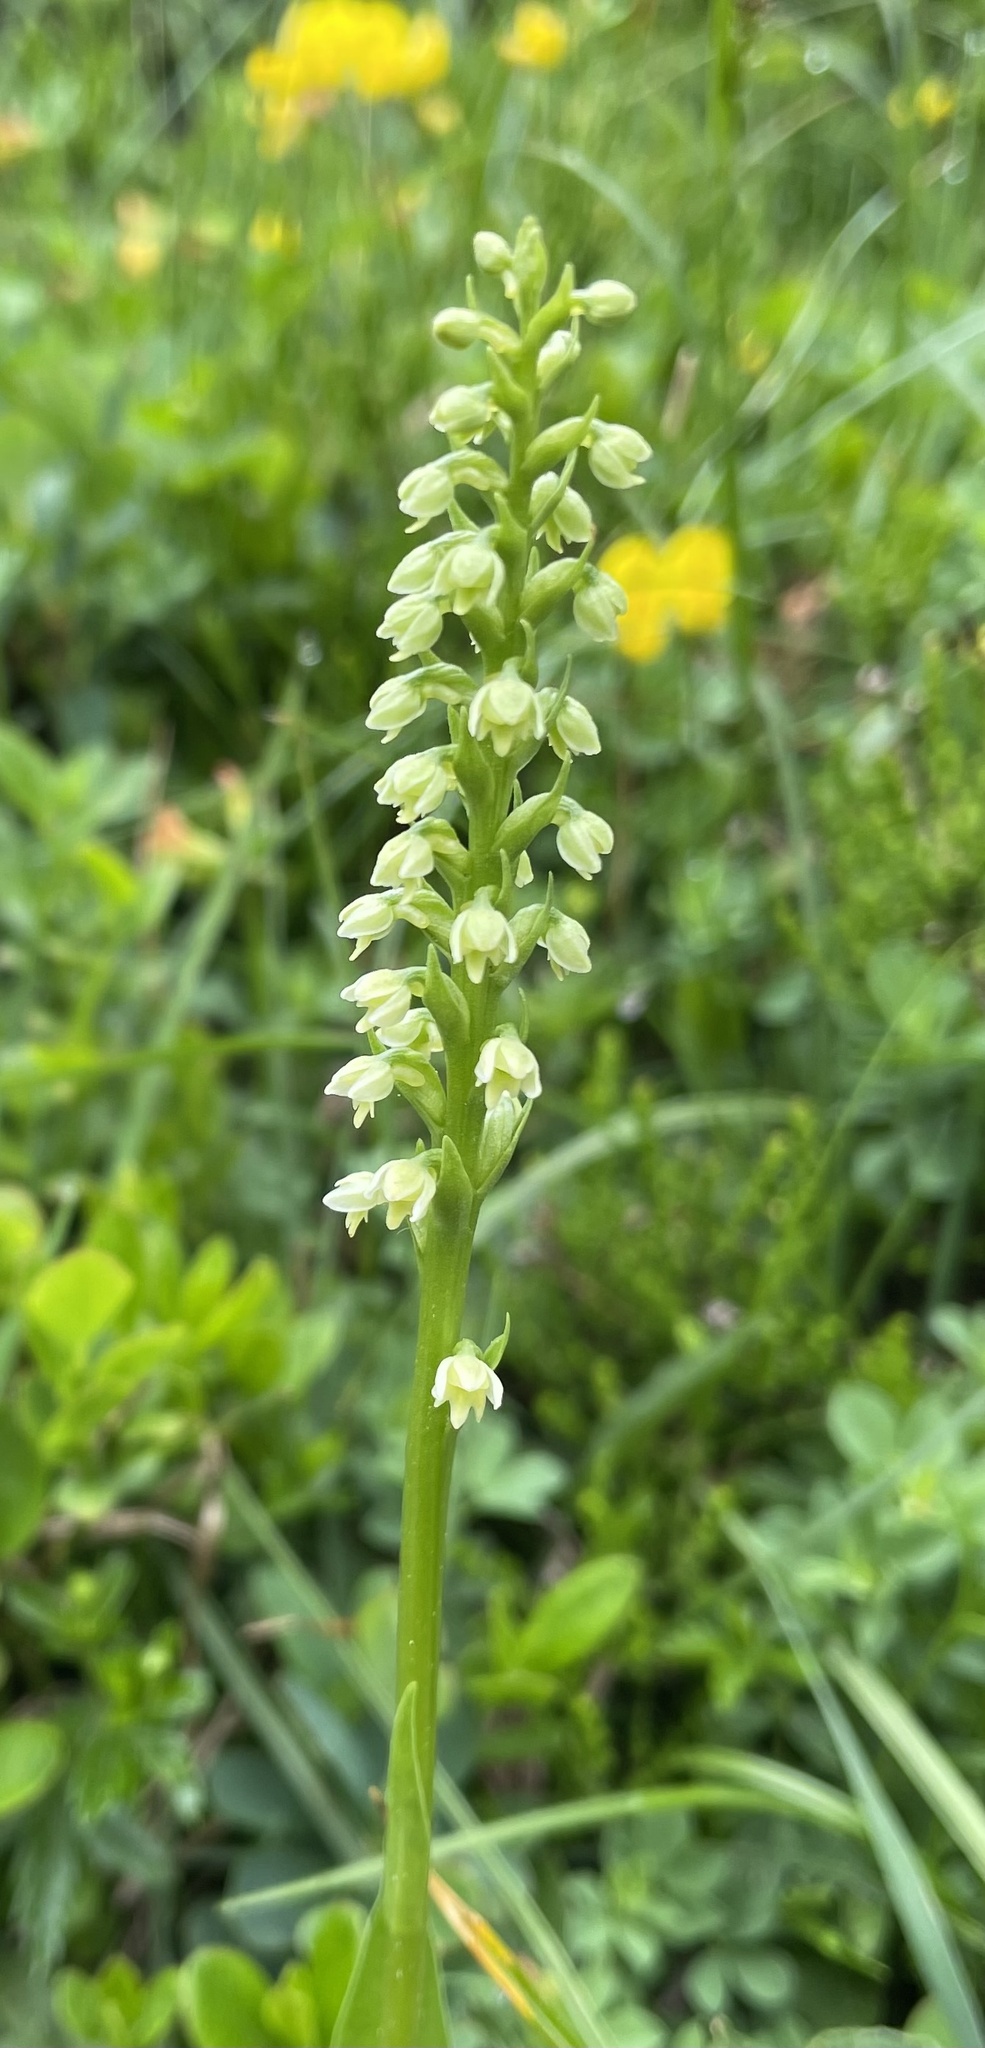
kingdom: Plantae
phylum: Tracheophyta
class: Liliopsida
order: Asparagales
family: Orchidaceae
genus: Pseudorchis
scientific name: Pseudorchis albida
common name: Small-white orchid
